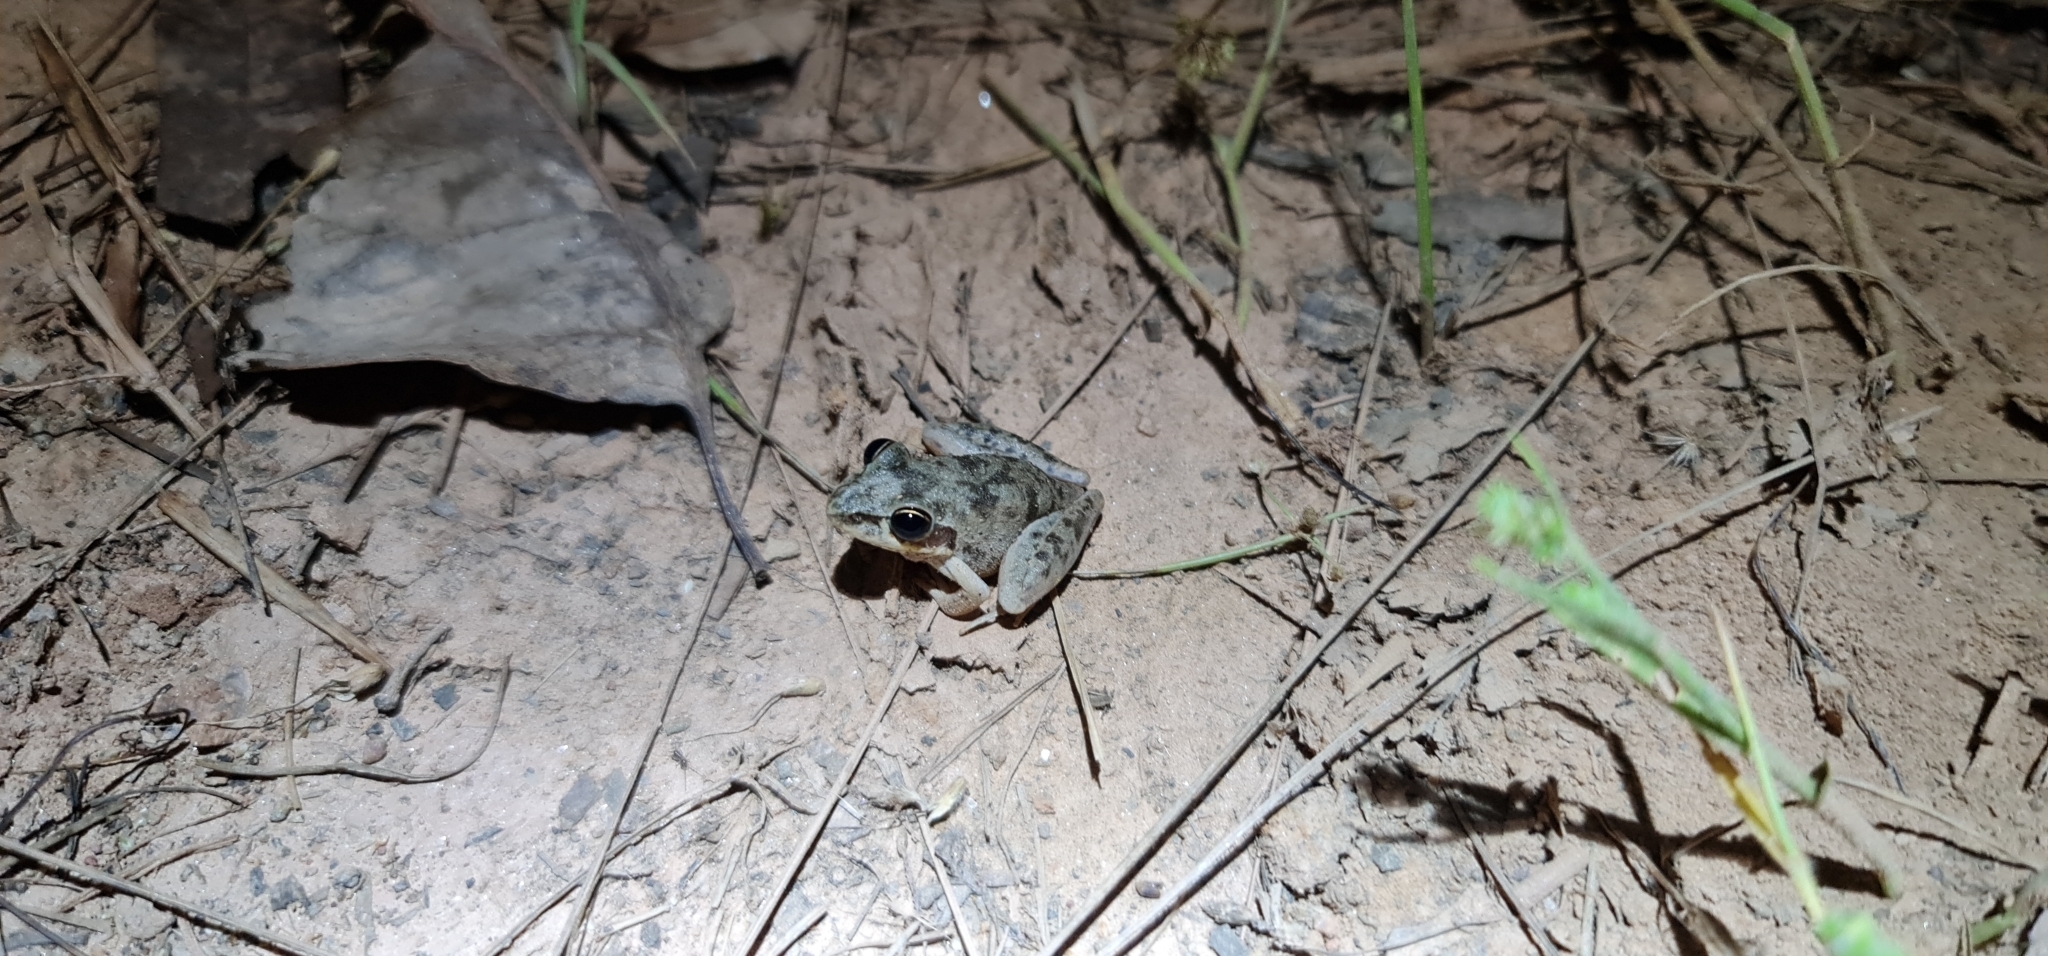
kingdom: Animalia
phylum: Chordata
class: Amphibia
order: Anura
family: Pelodryadidae
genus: Litoria
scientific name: Litoria pallida
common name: Pale frog
